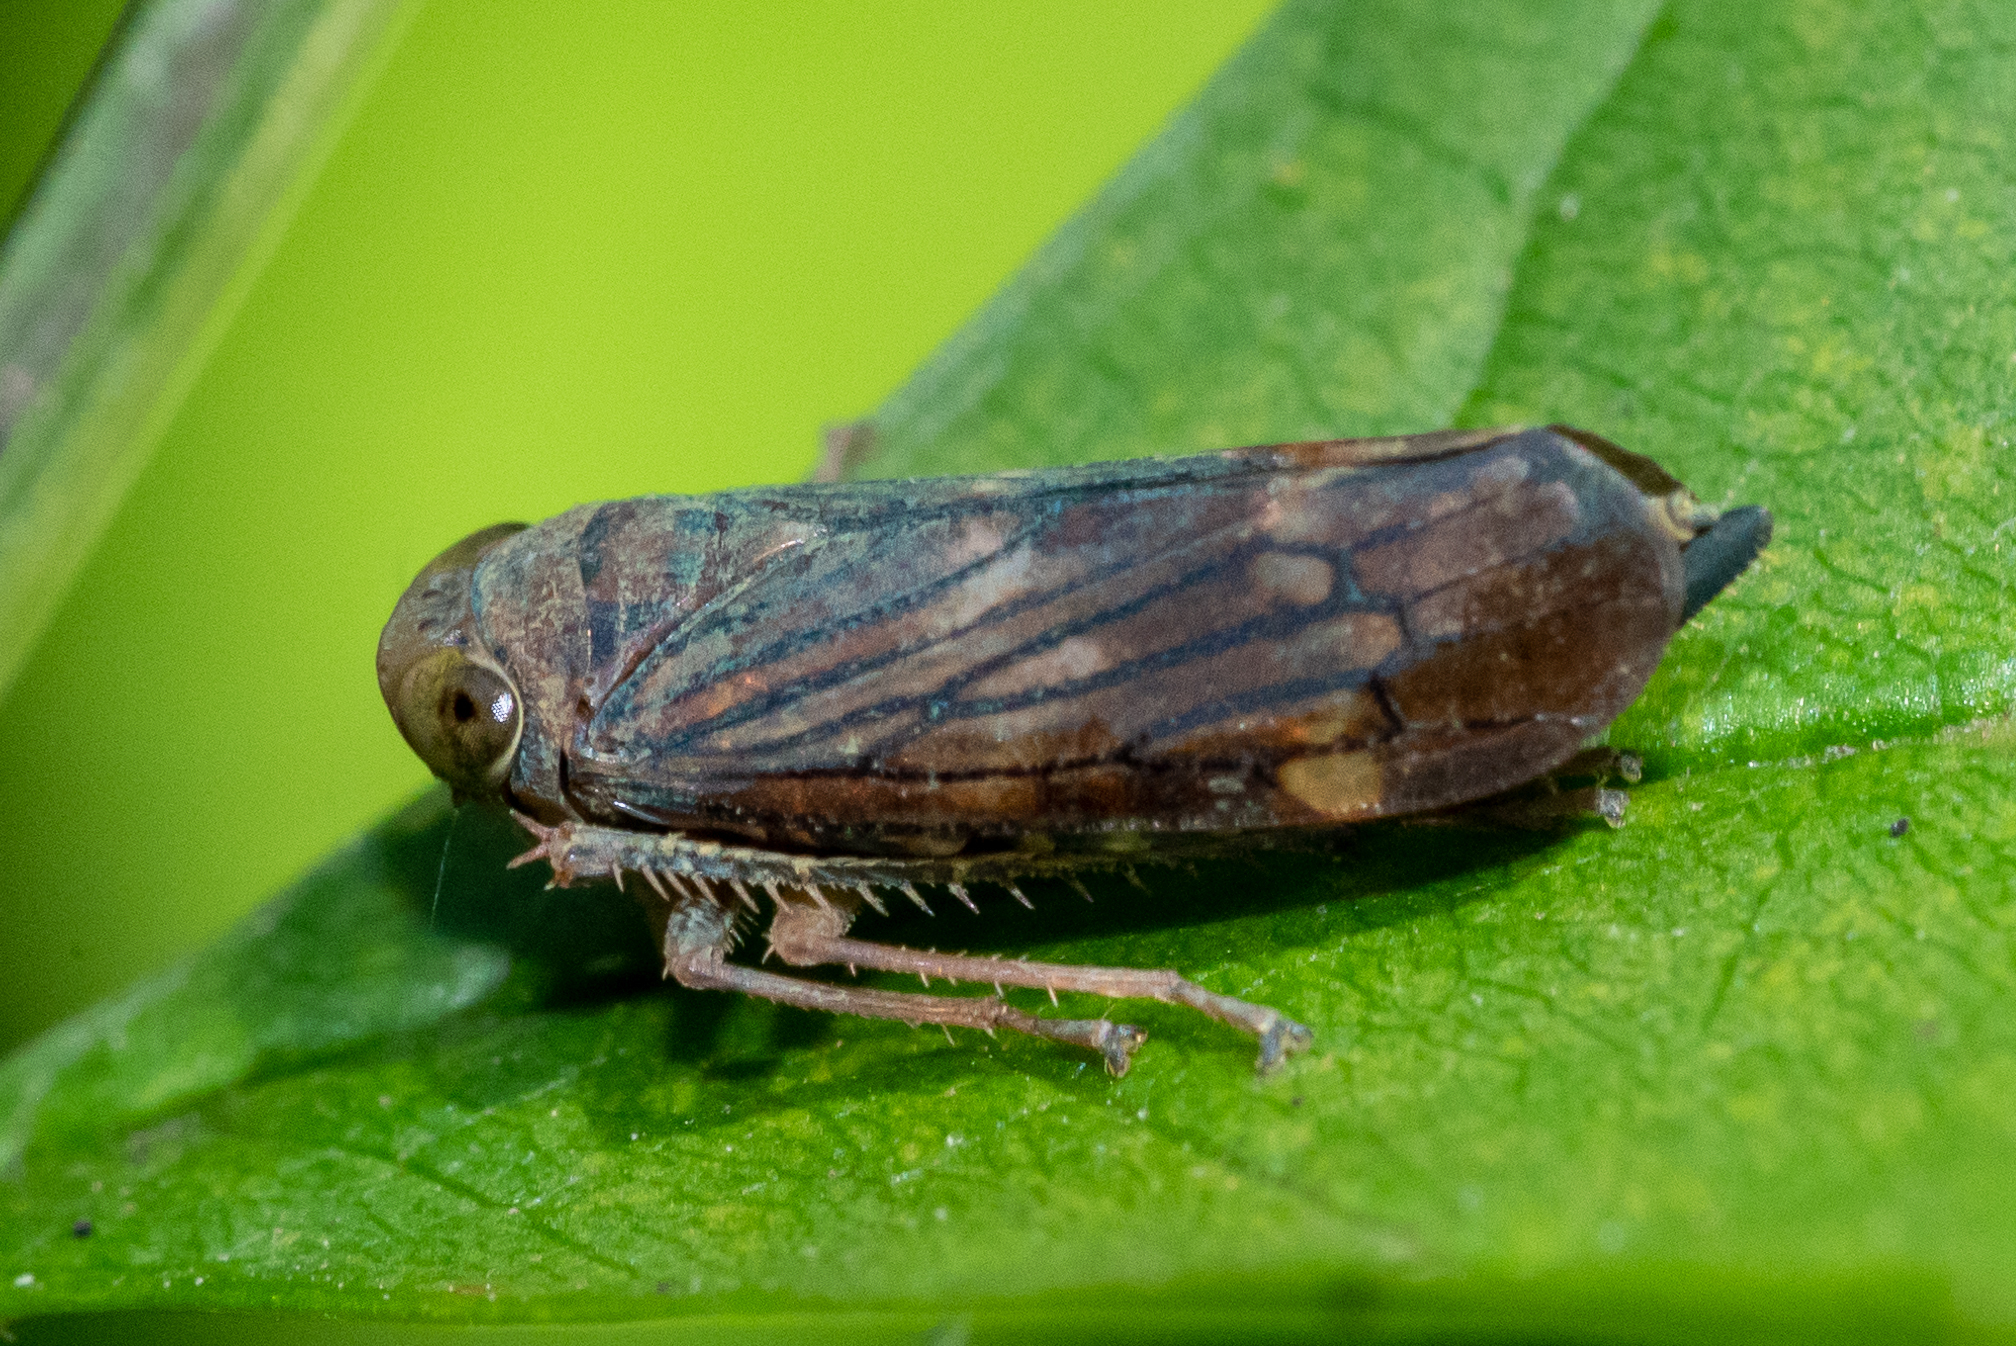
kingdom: Animalia
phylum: Arthropoda
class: Insecta
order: Hemiptera
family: Cicadellidae
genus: Jikradia
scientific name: Jikradia olitoria
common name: Coppery leafhopper
